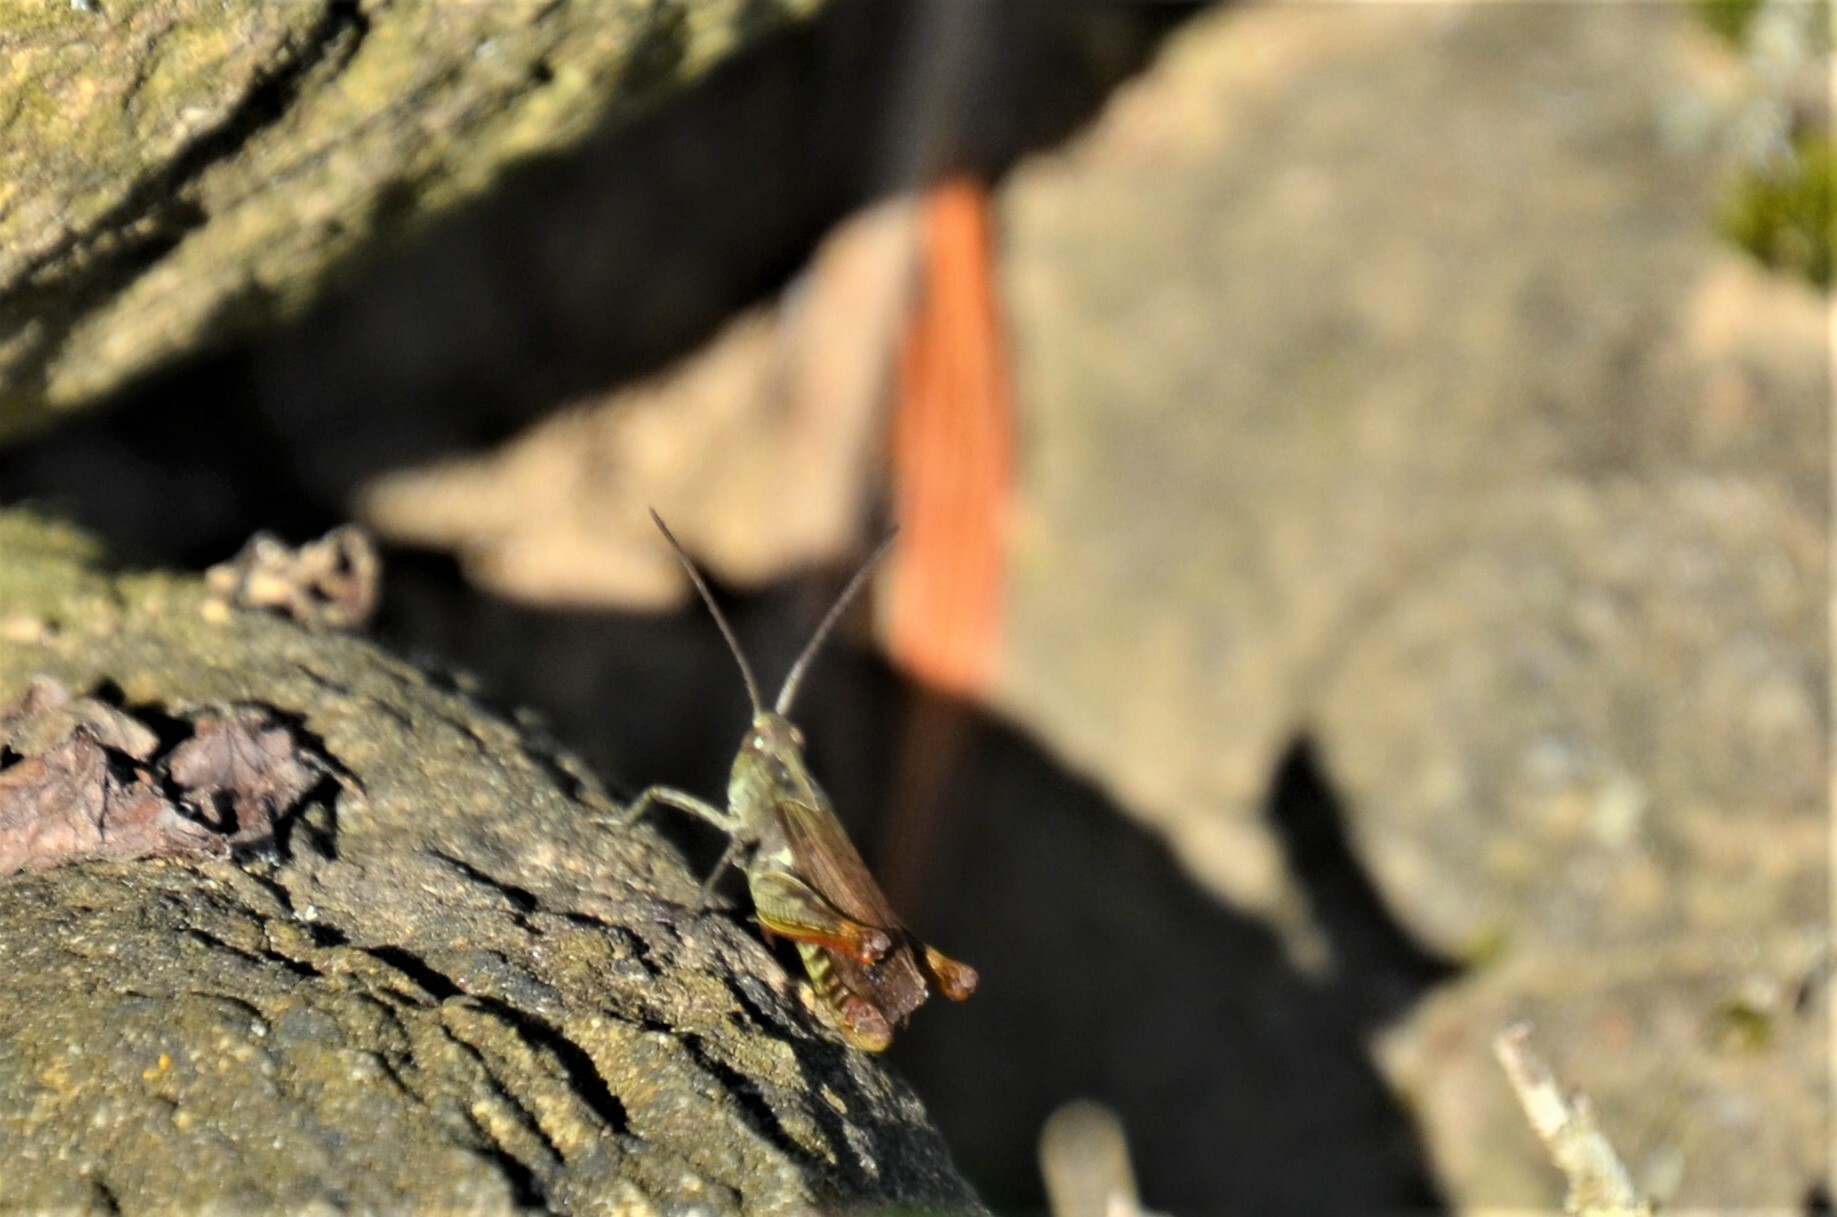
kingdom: Animalia
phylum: Arthropoda
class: Insecta
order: Orthoptera
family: Acrididae
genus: Chorthippus
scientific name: Chorthippus biguttulus
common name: Bow-winged grasshopper
